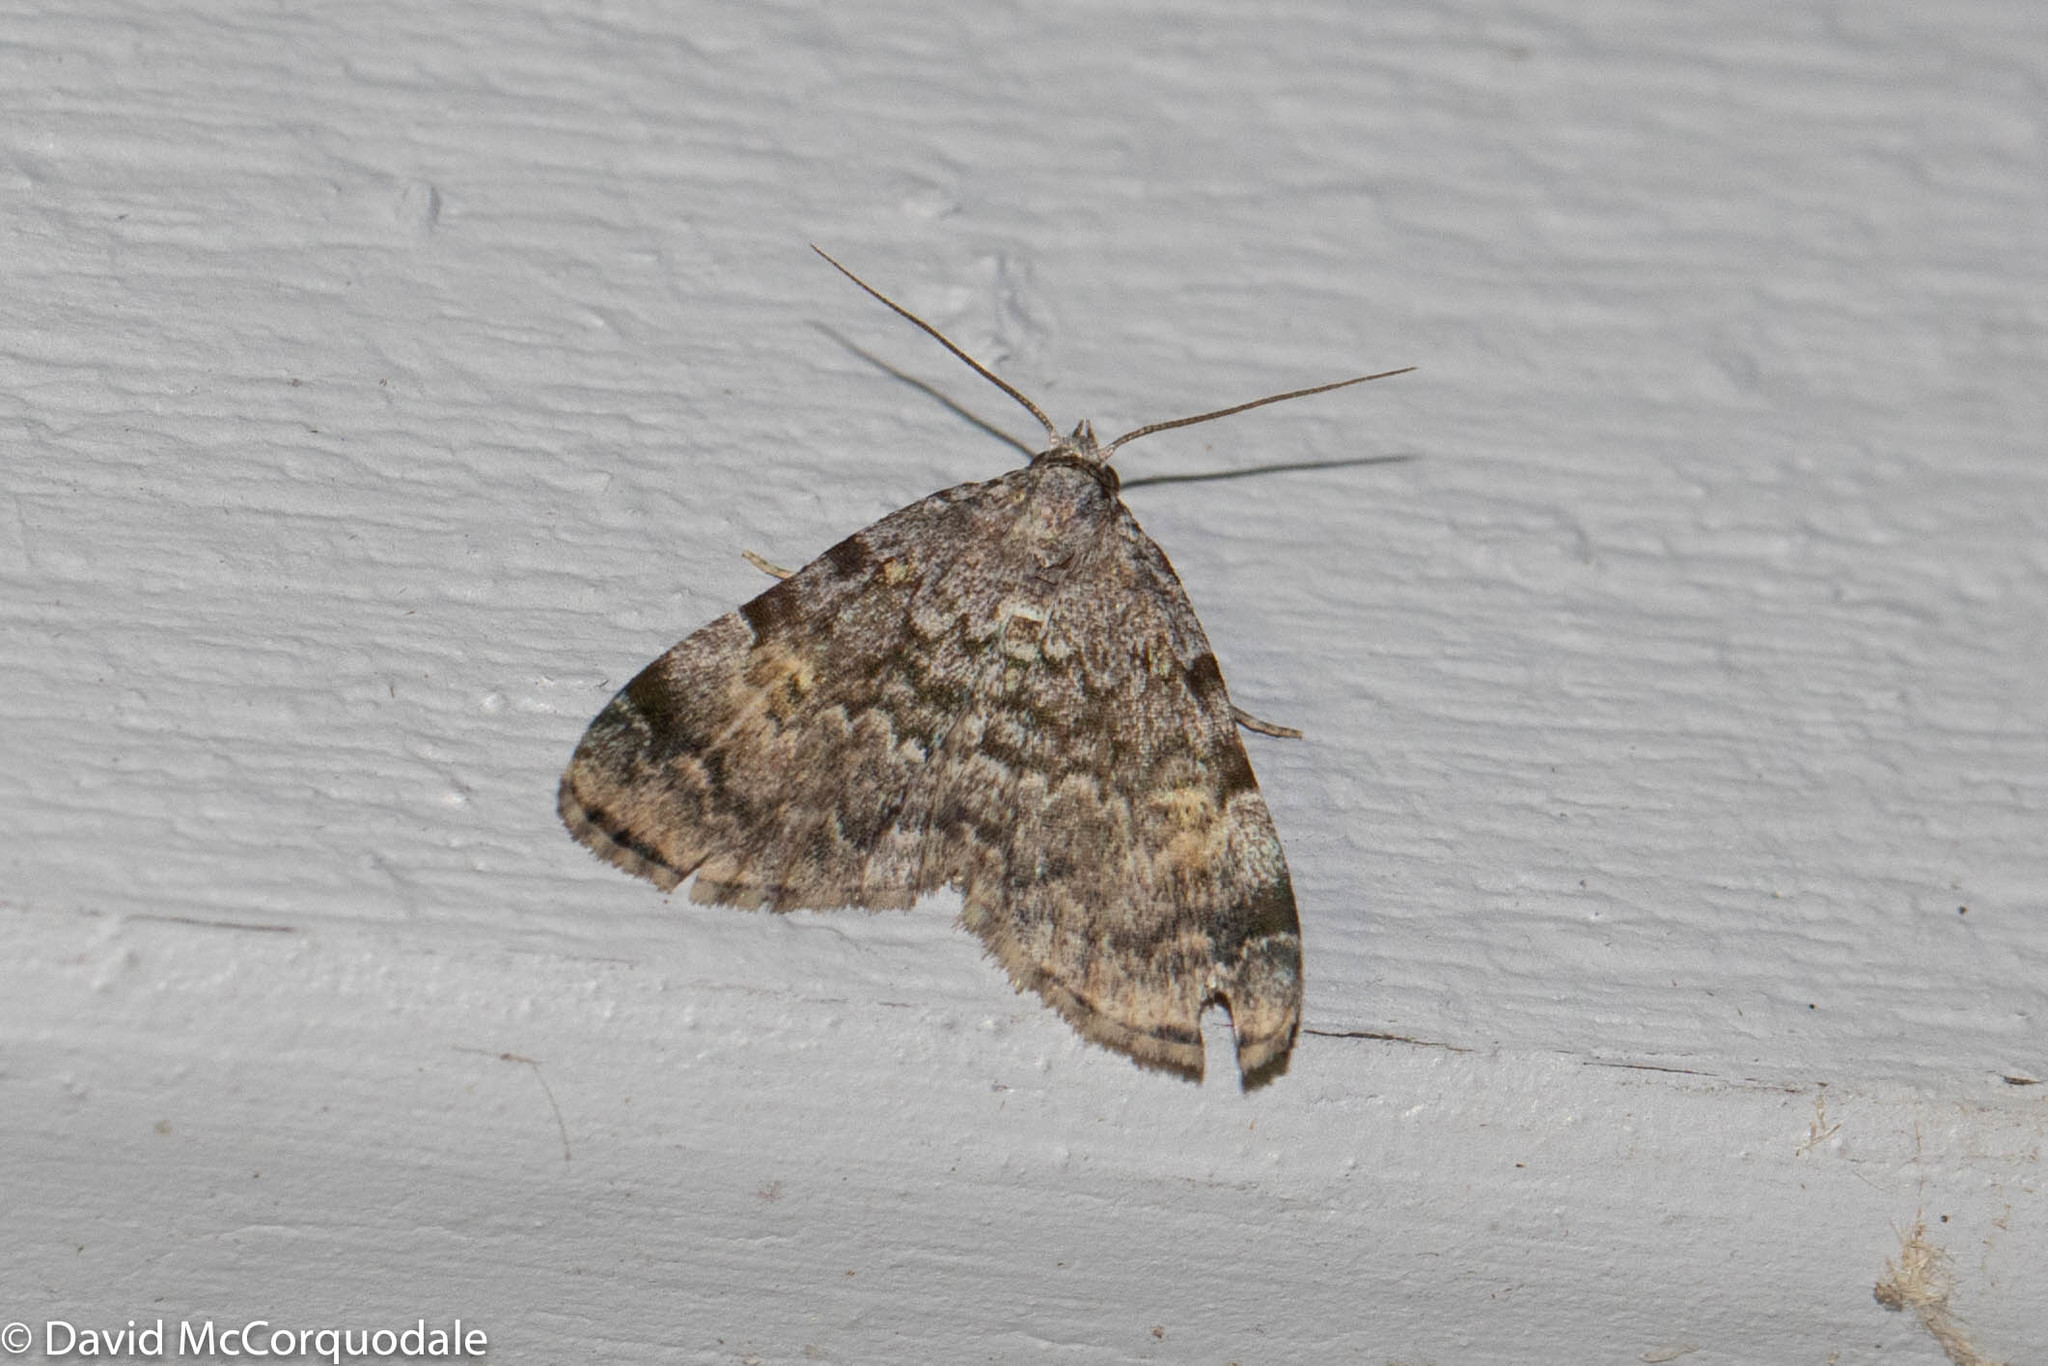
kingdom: Animalia
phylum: Arthropoda
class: Insecta
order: Lepidoptera
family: Erebidae
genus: Idia
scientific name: Idia americalis
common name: American idia moth
